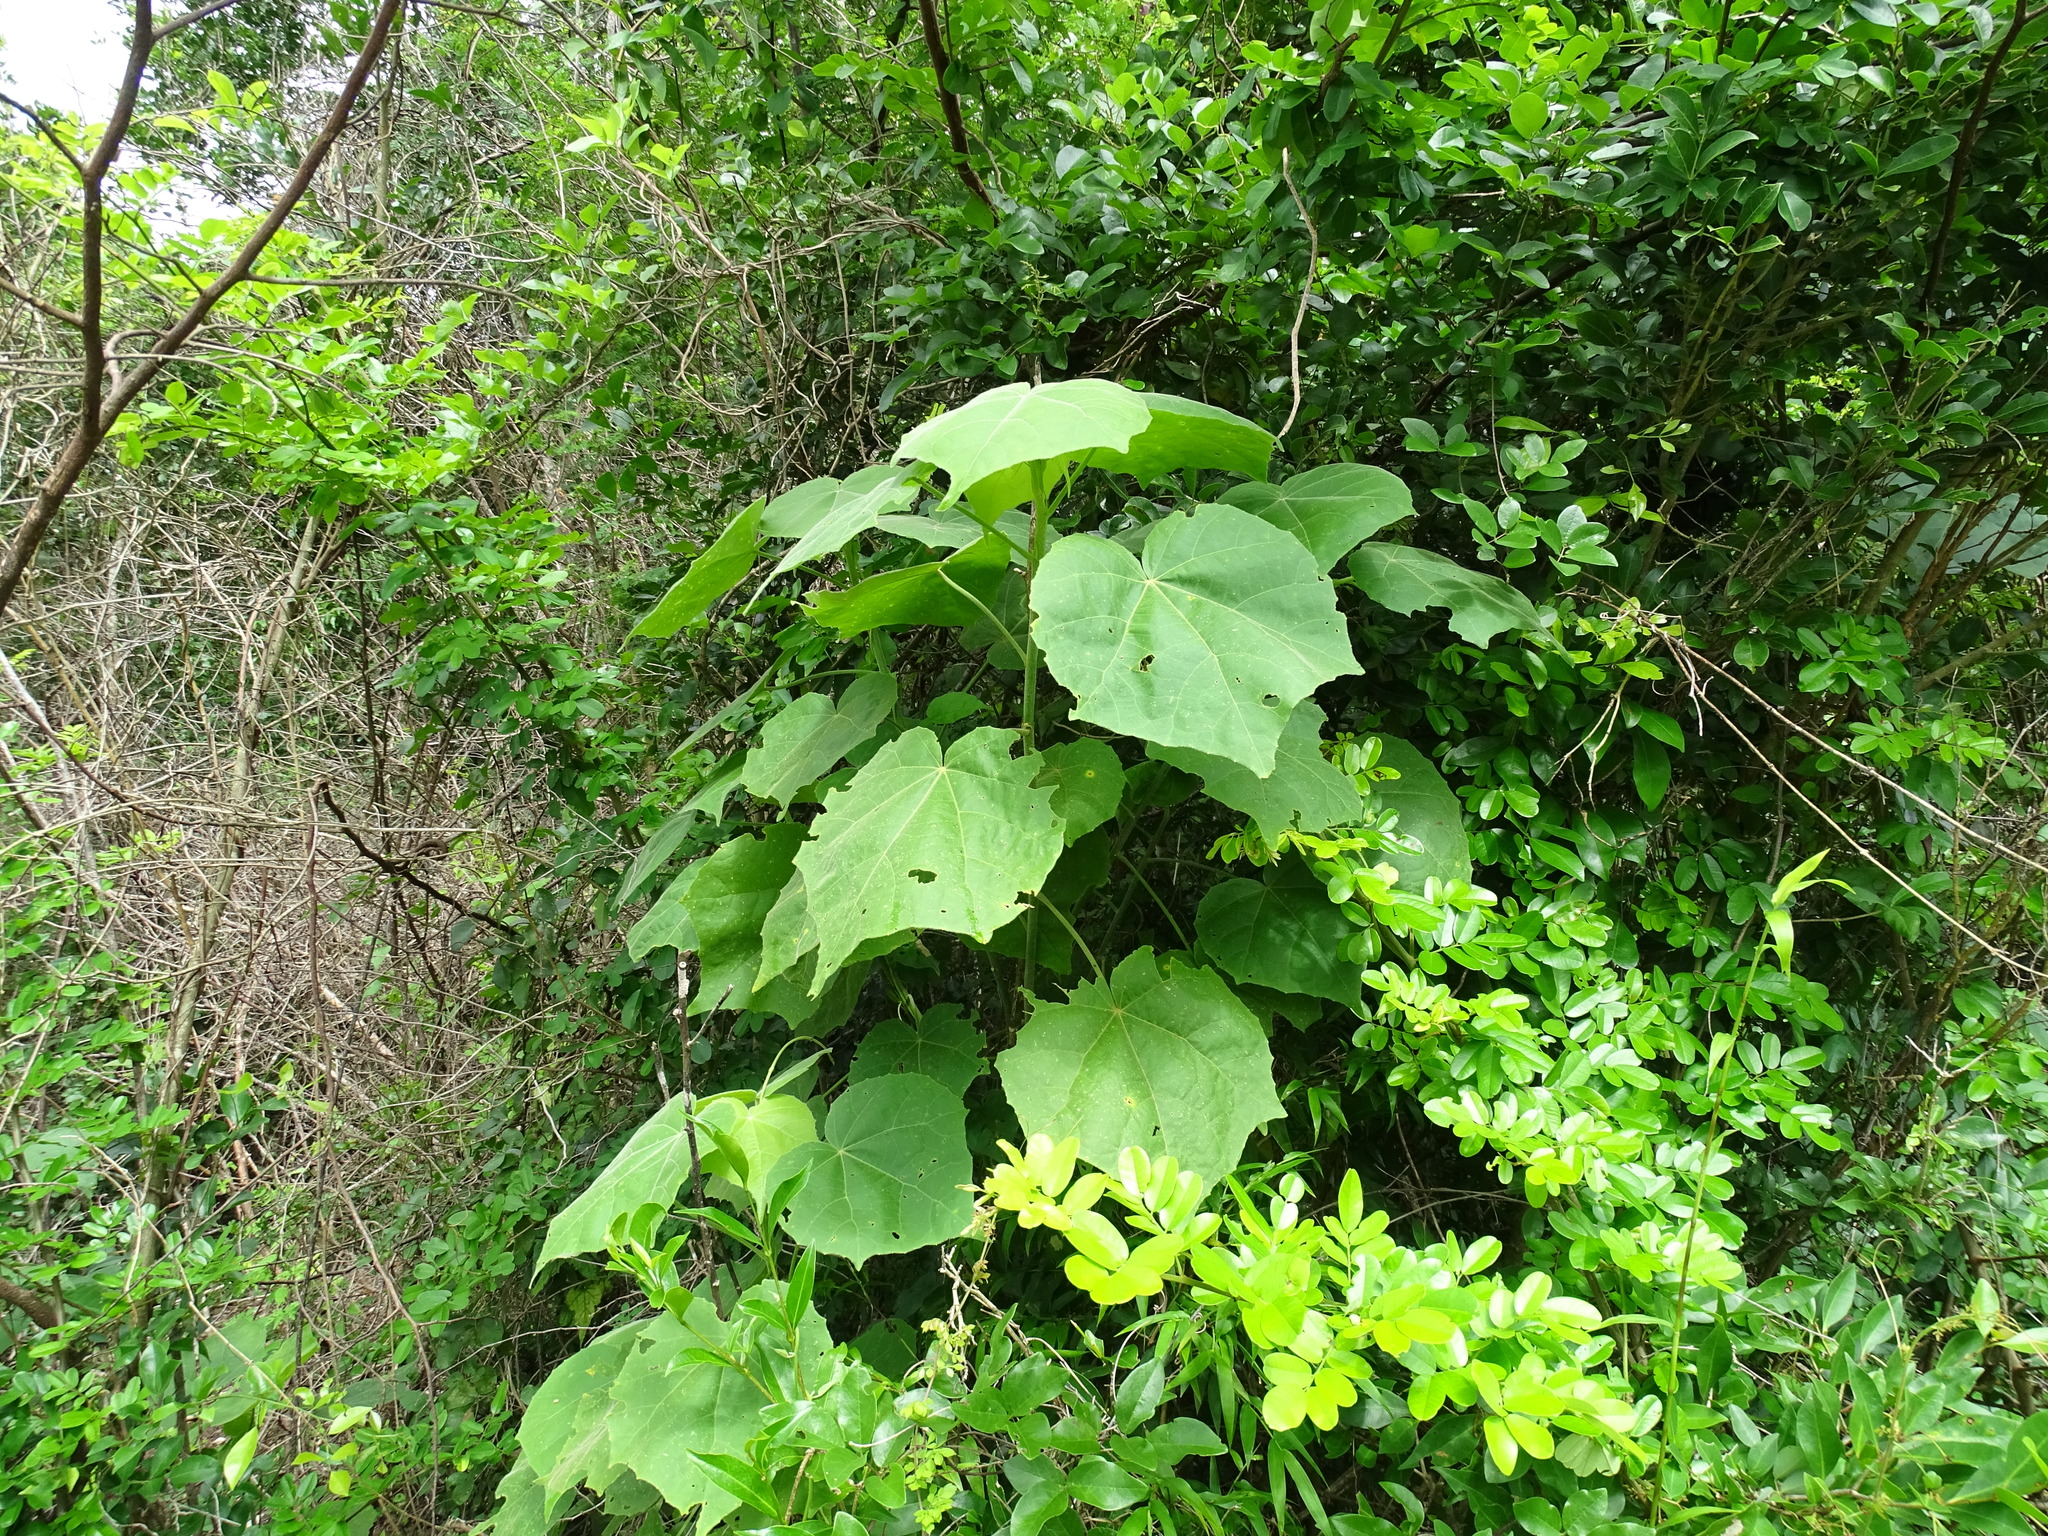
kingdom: Plantae
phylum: Tracheophyta
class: Magnoliopsida
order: Malvales
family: Malvaceae
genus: Hampea
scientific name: Hampea trilobata
